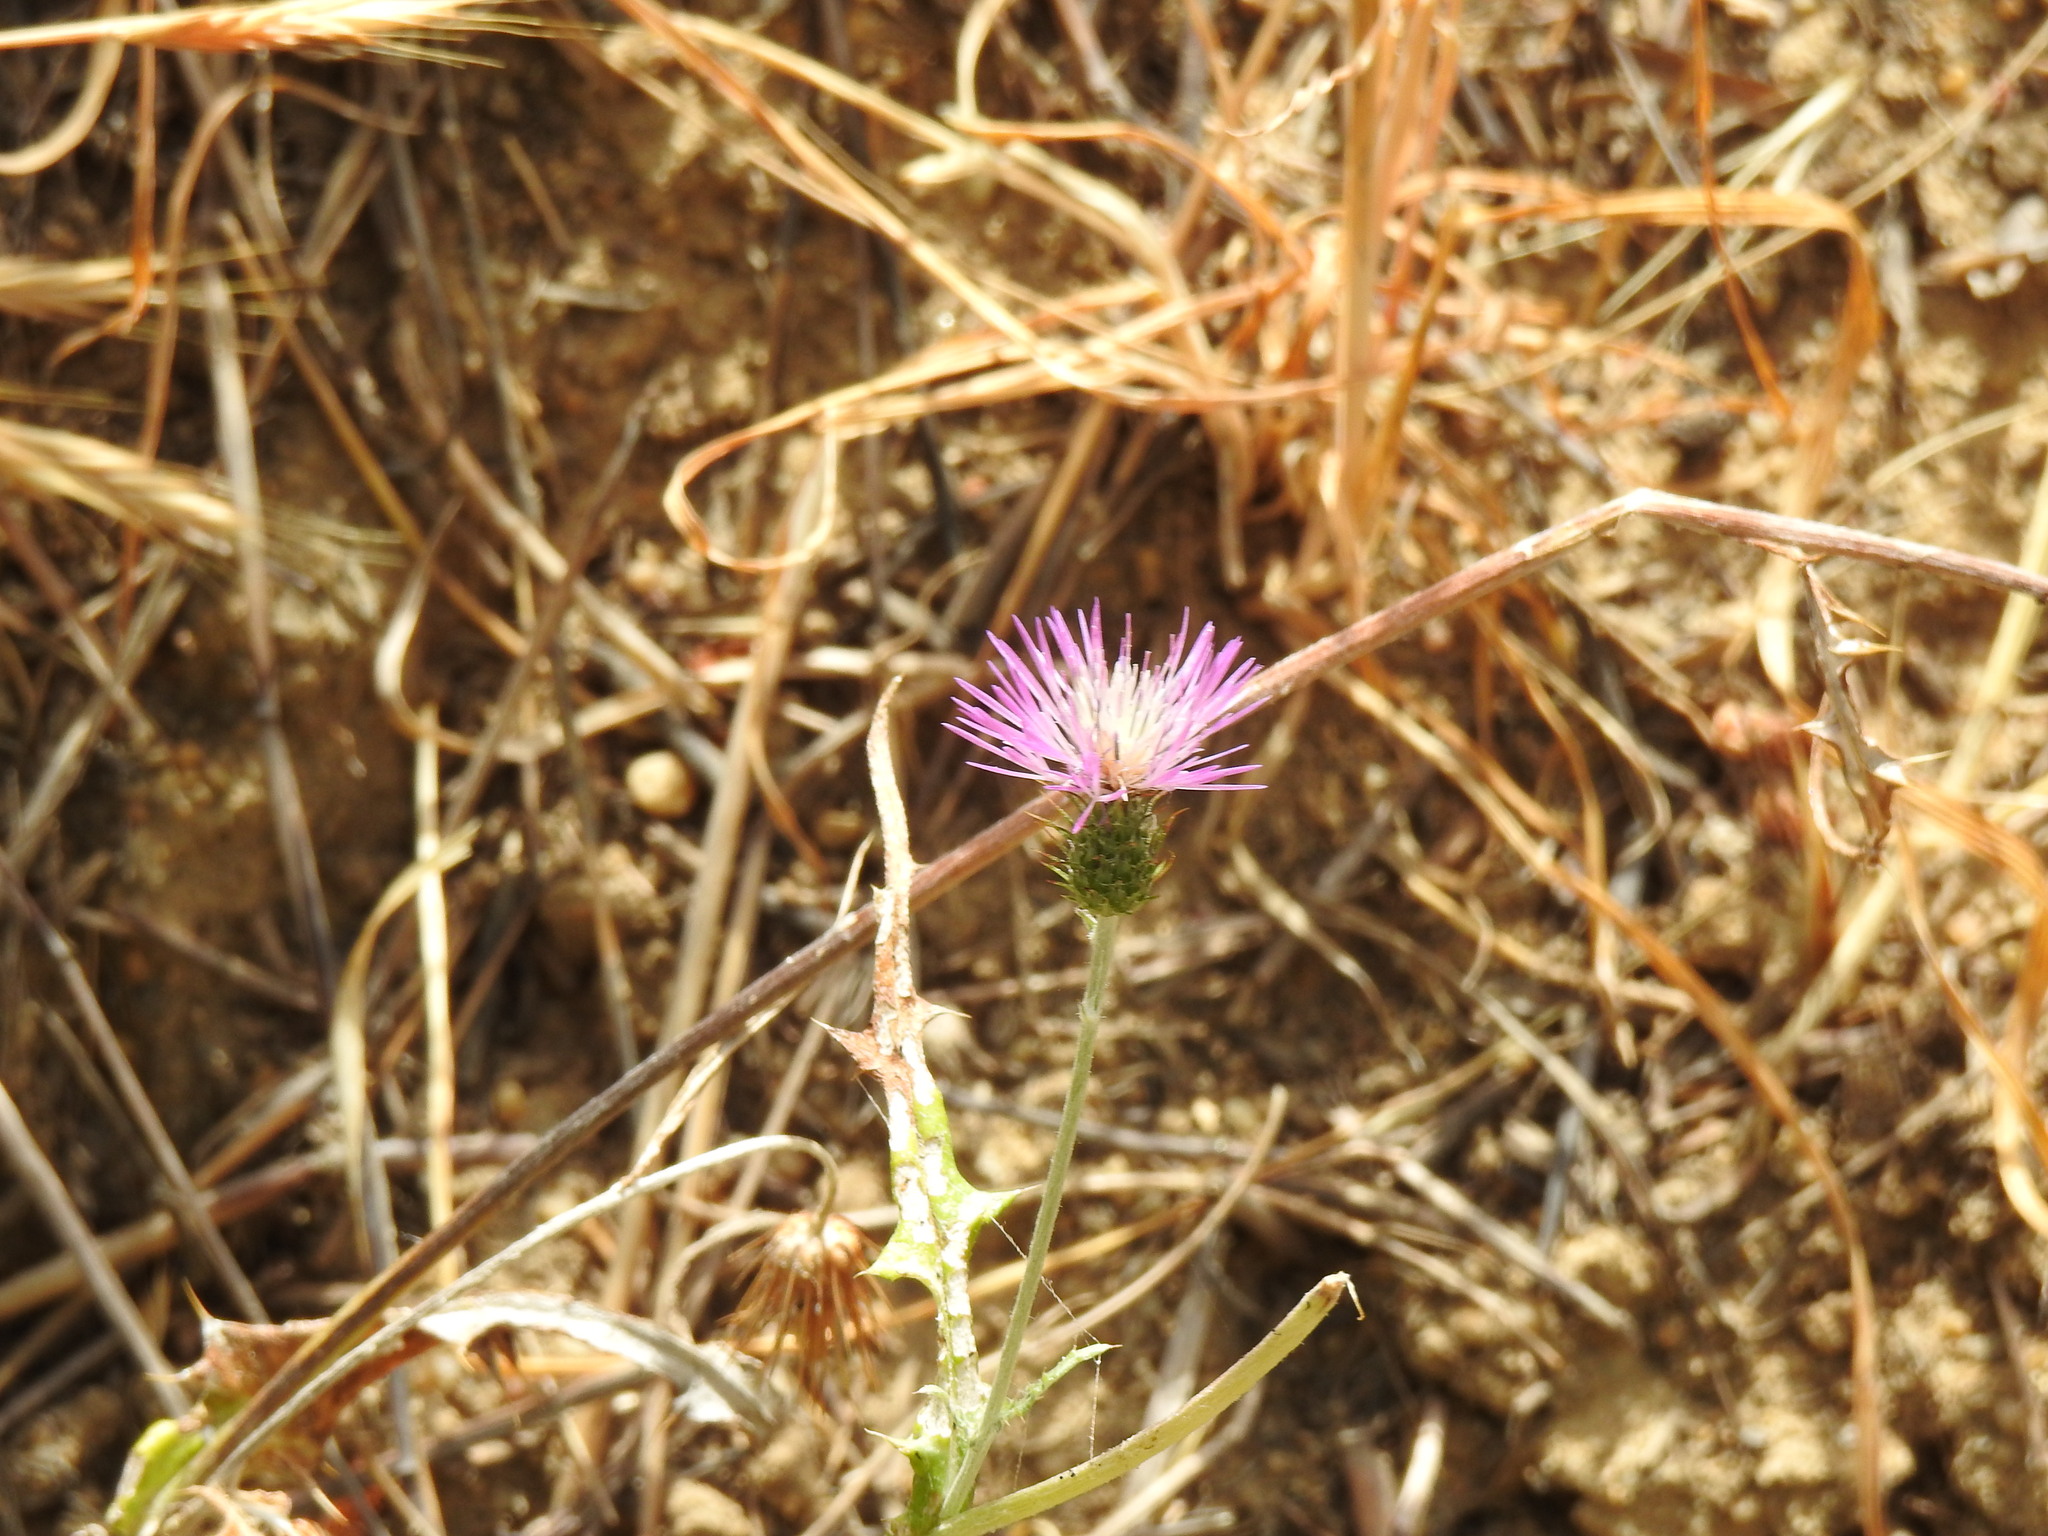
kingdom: Plantae
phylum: Tracheophyta
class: Magnoliopsida
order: Asterales
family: Asteraceae
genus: Galactites
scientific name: Galactites tomentosa
